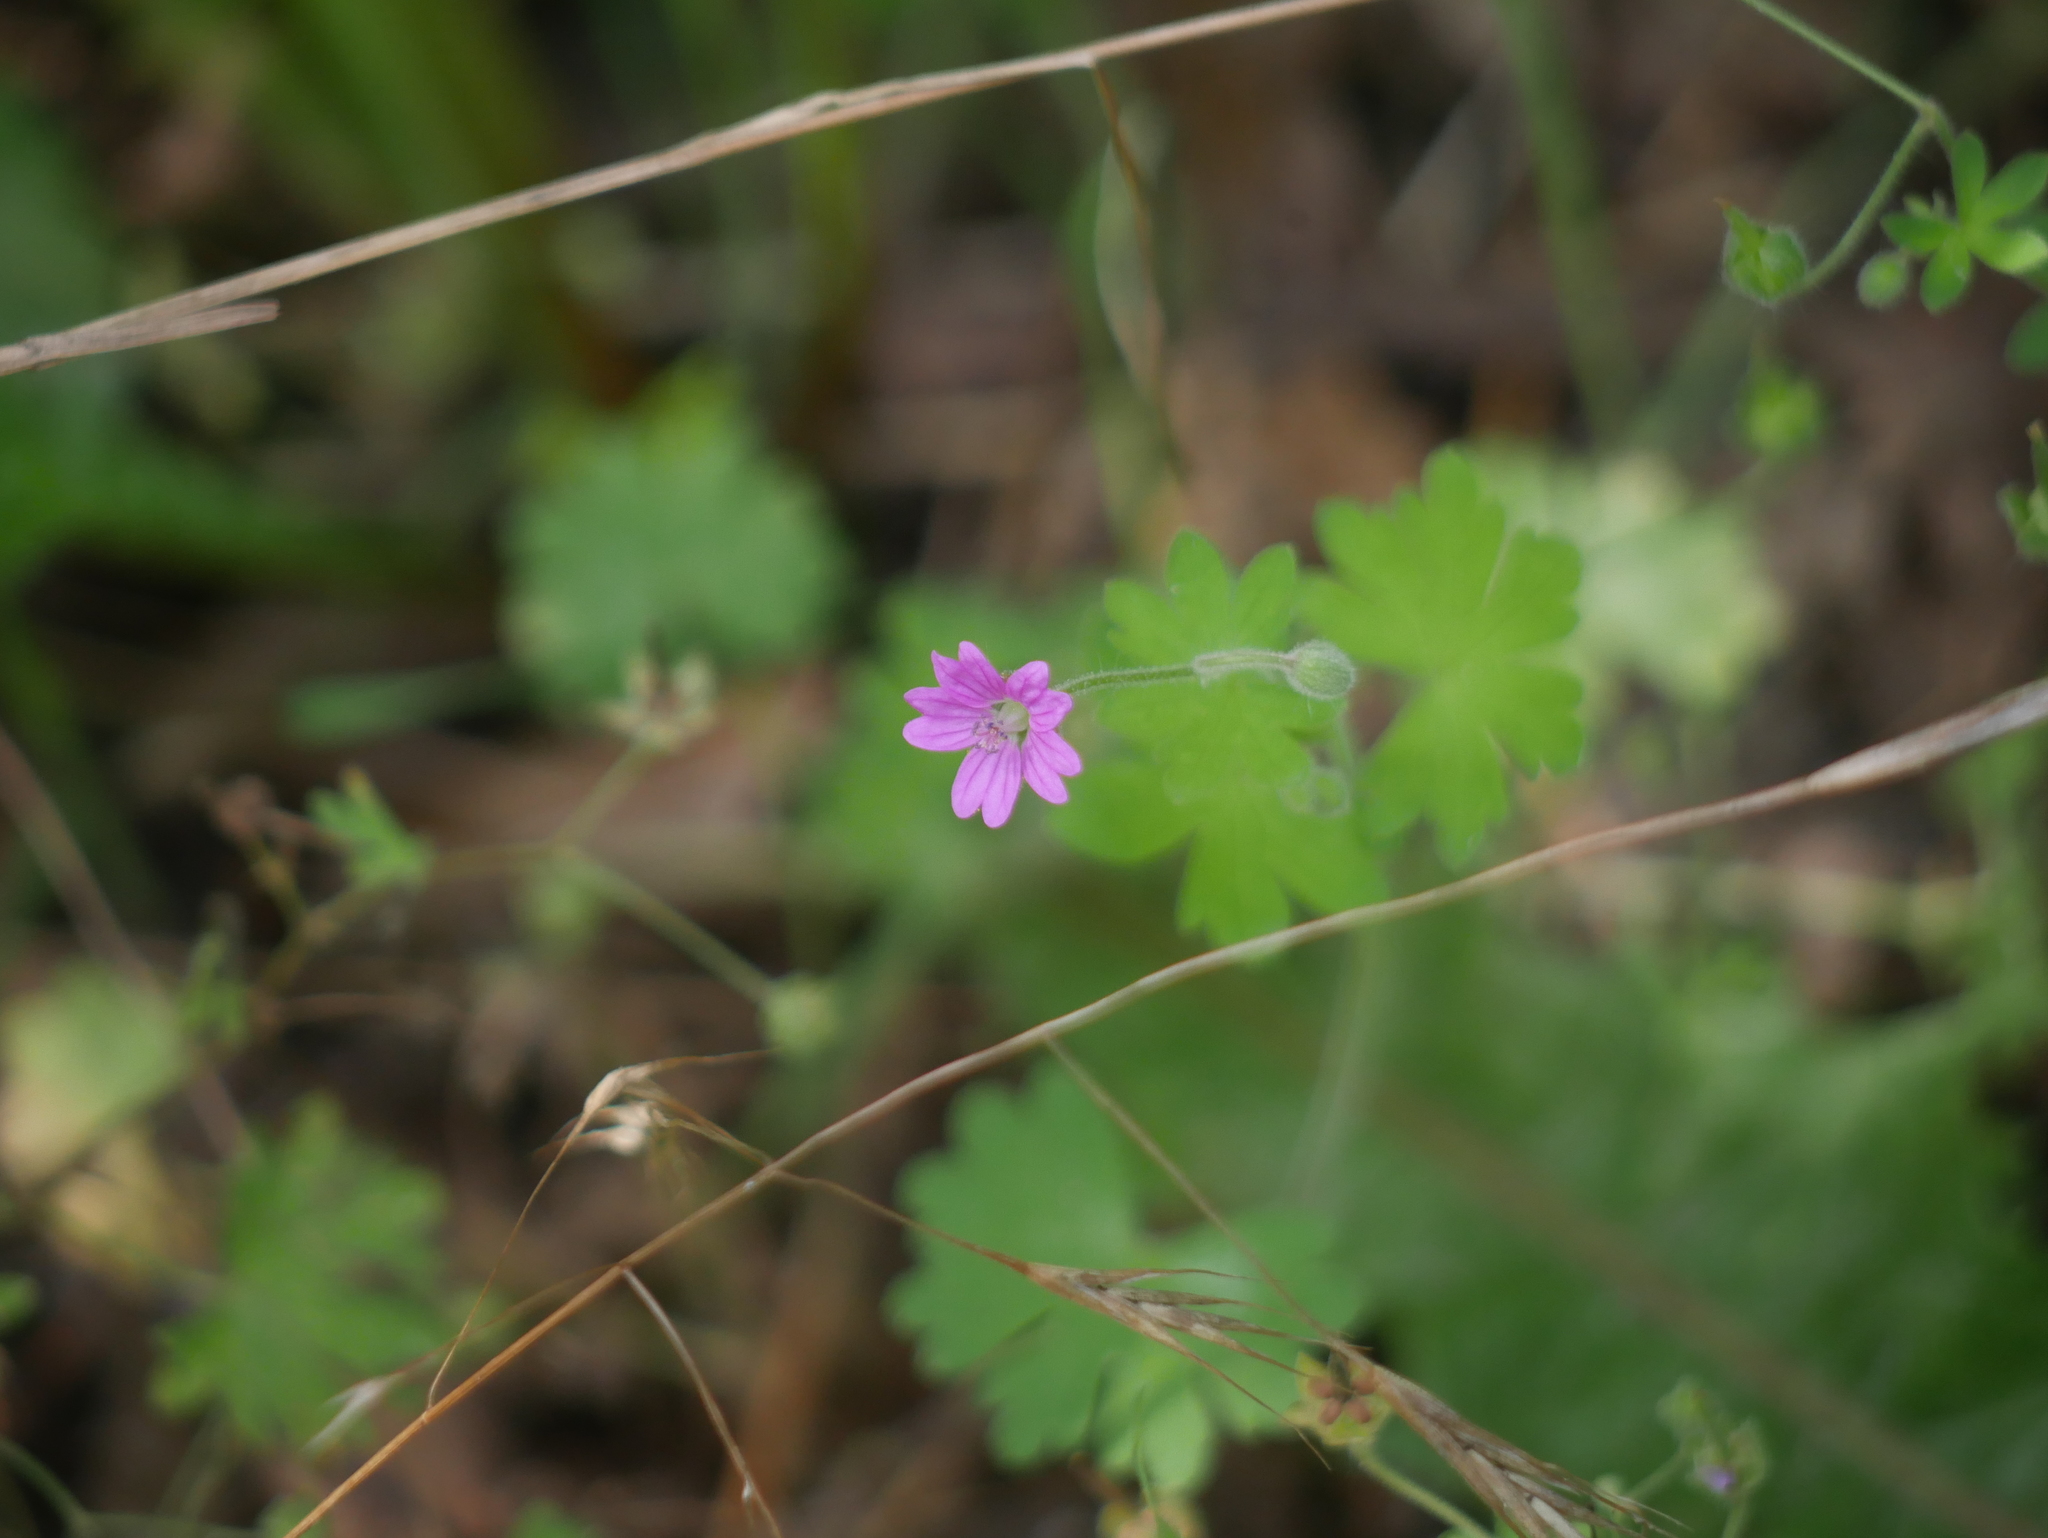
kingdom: Plantae
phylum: Tracheophyta
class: Magnoliopsida
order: Geraniales
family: Geraniaceae
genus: Geranium
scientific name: Geranium molle
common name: Dove's-foot crane's-bill
